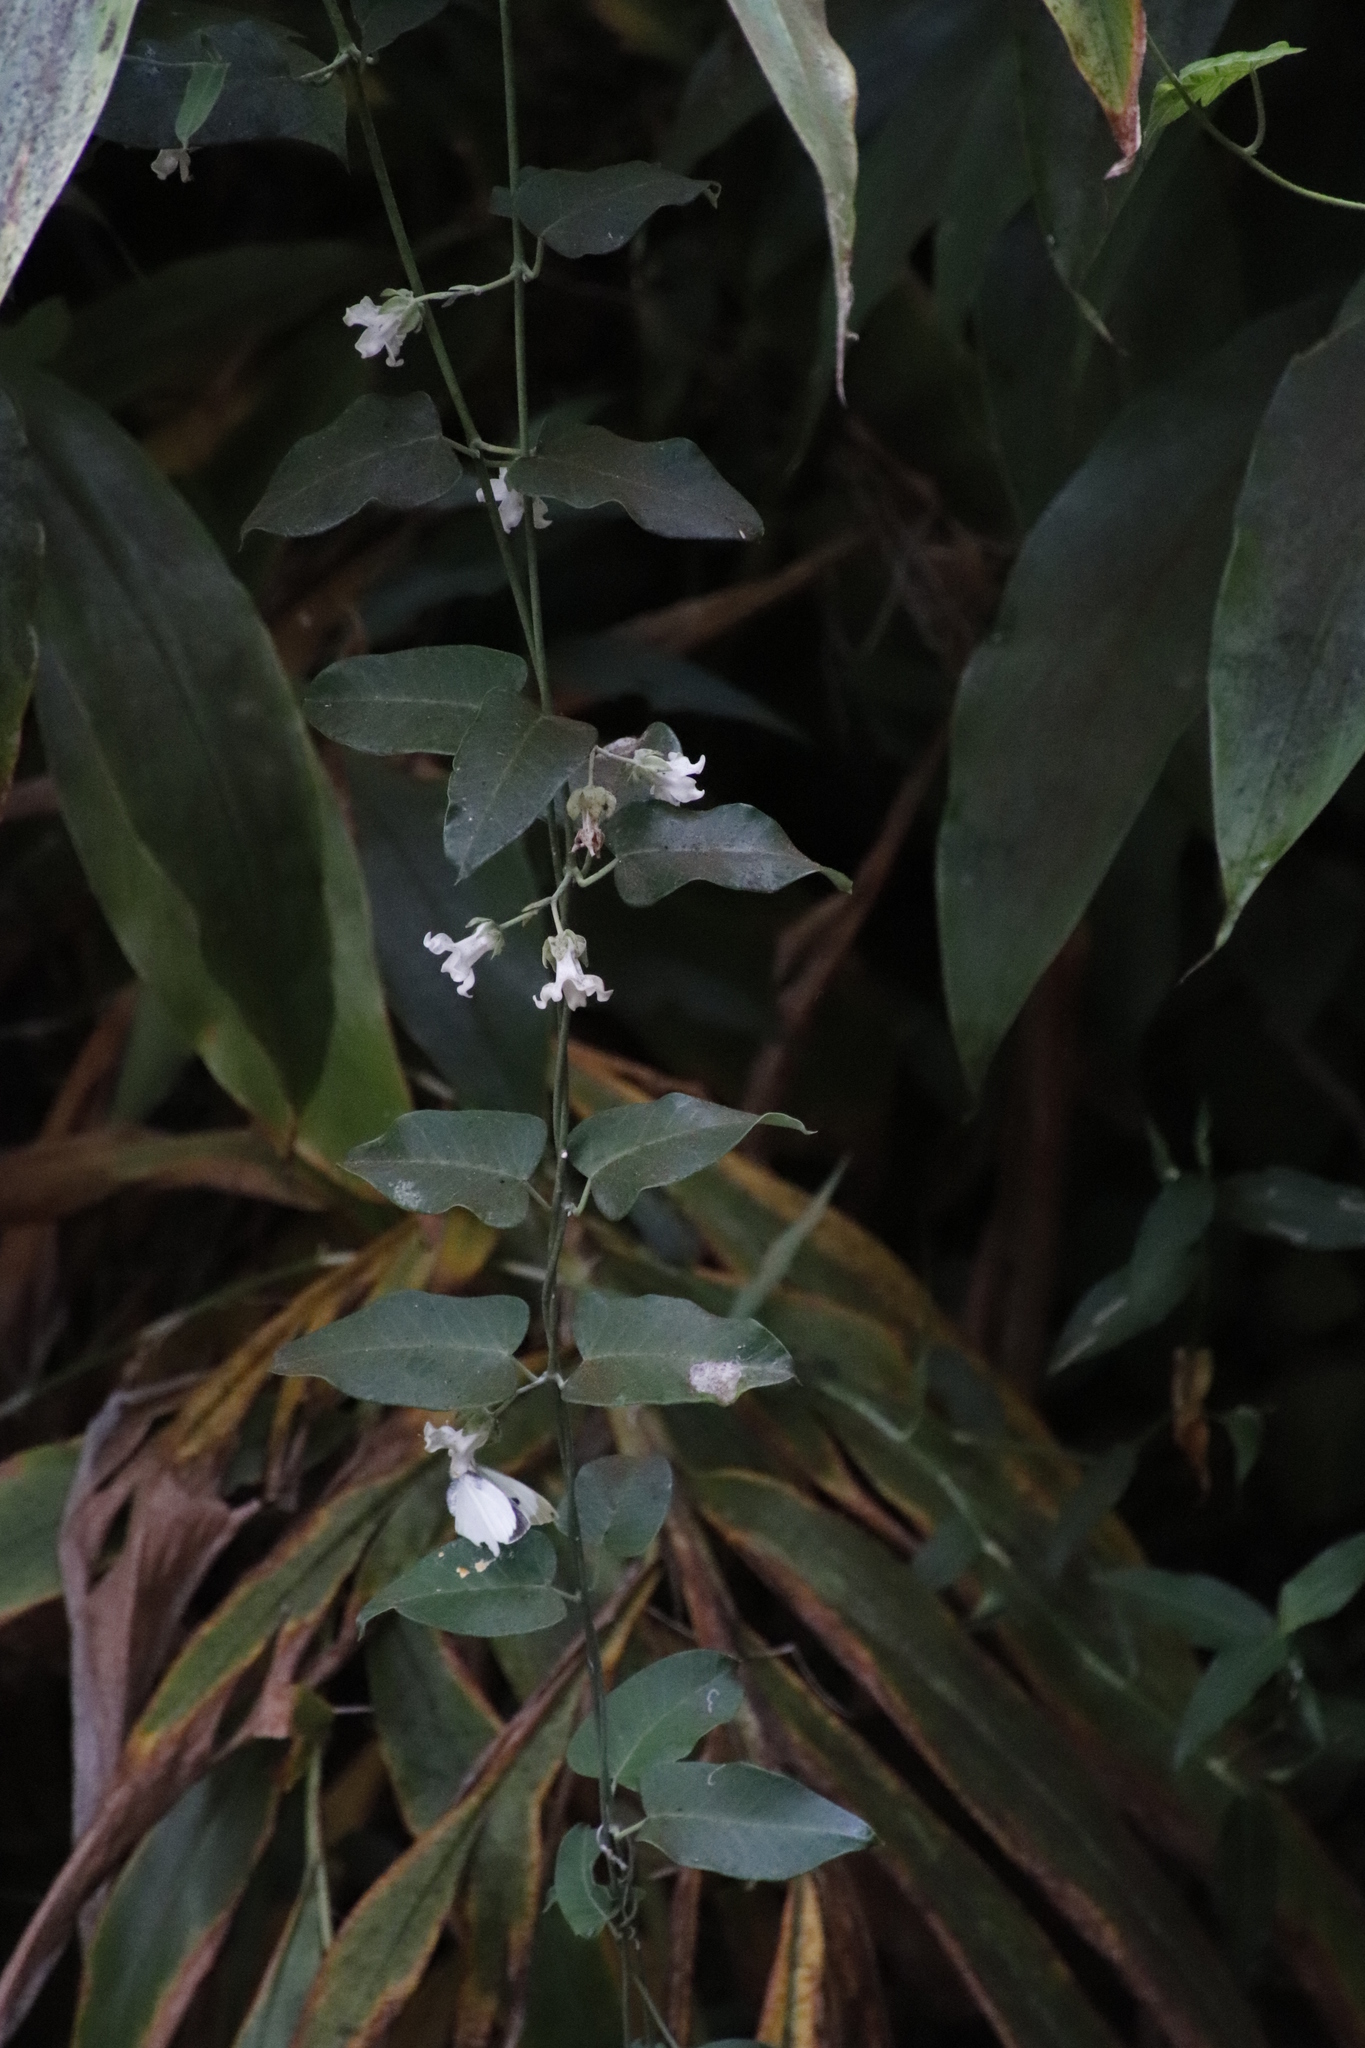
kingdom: Plantae
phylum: Tracheophyta
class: Magnoliopsida
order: Gentianales
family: Apocynaceae
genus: Araujia
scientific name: Araujia sericifera
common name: White bladderflower
